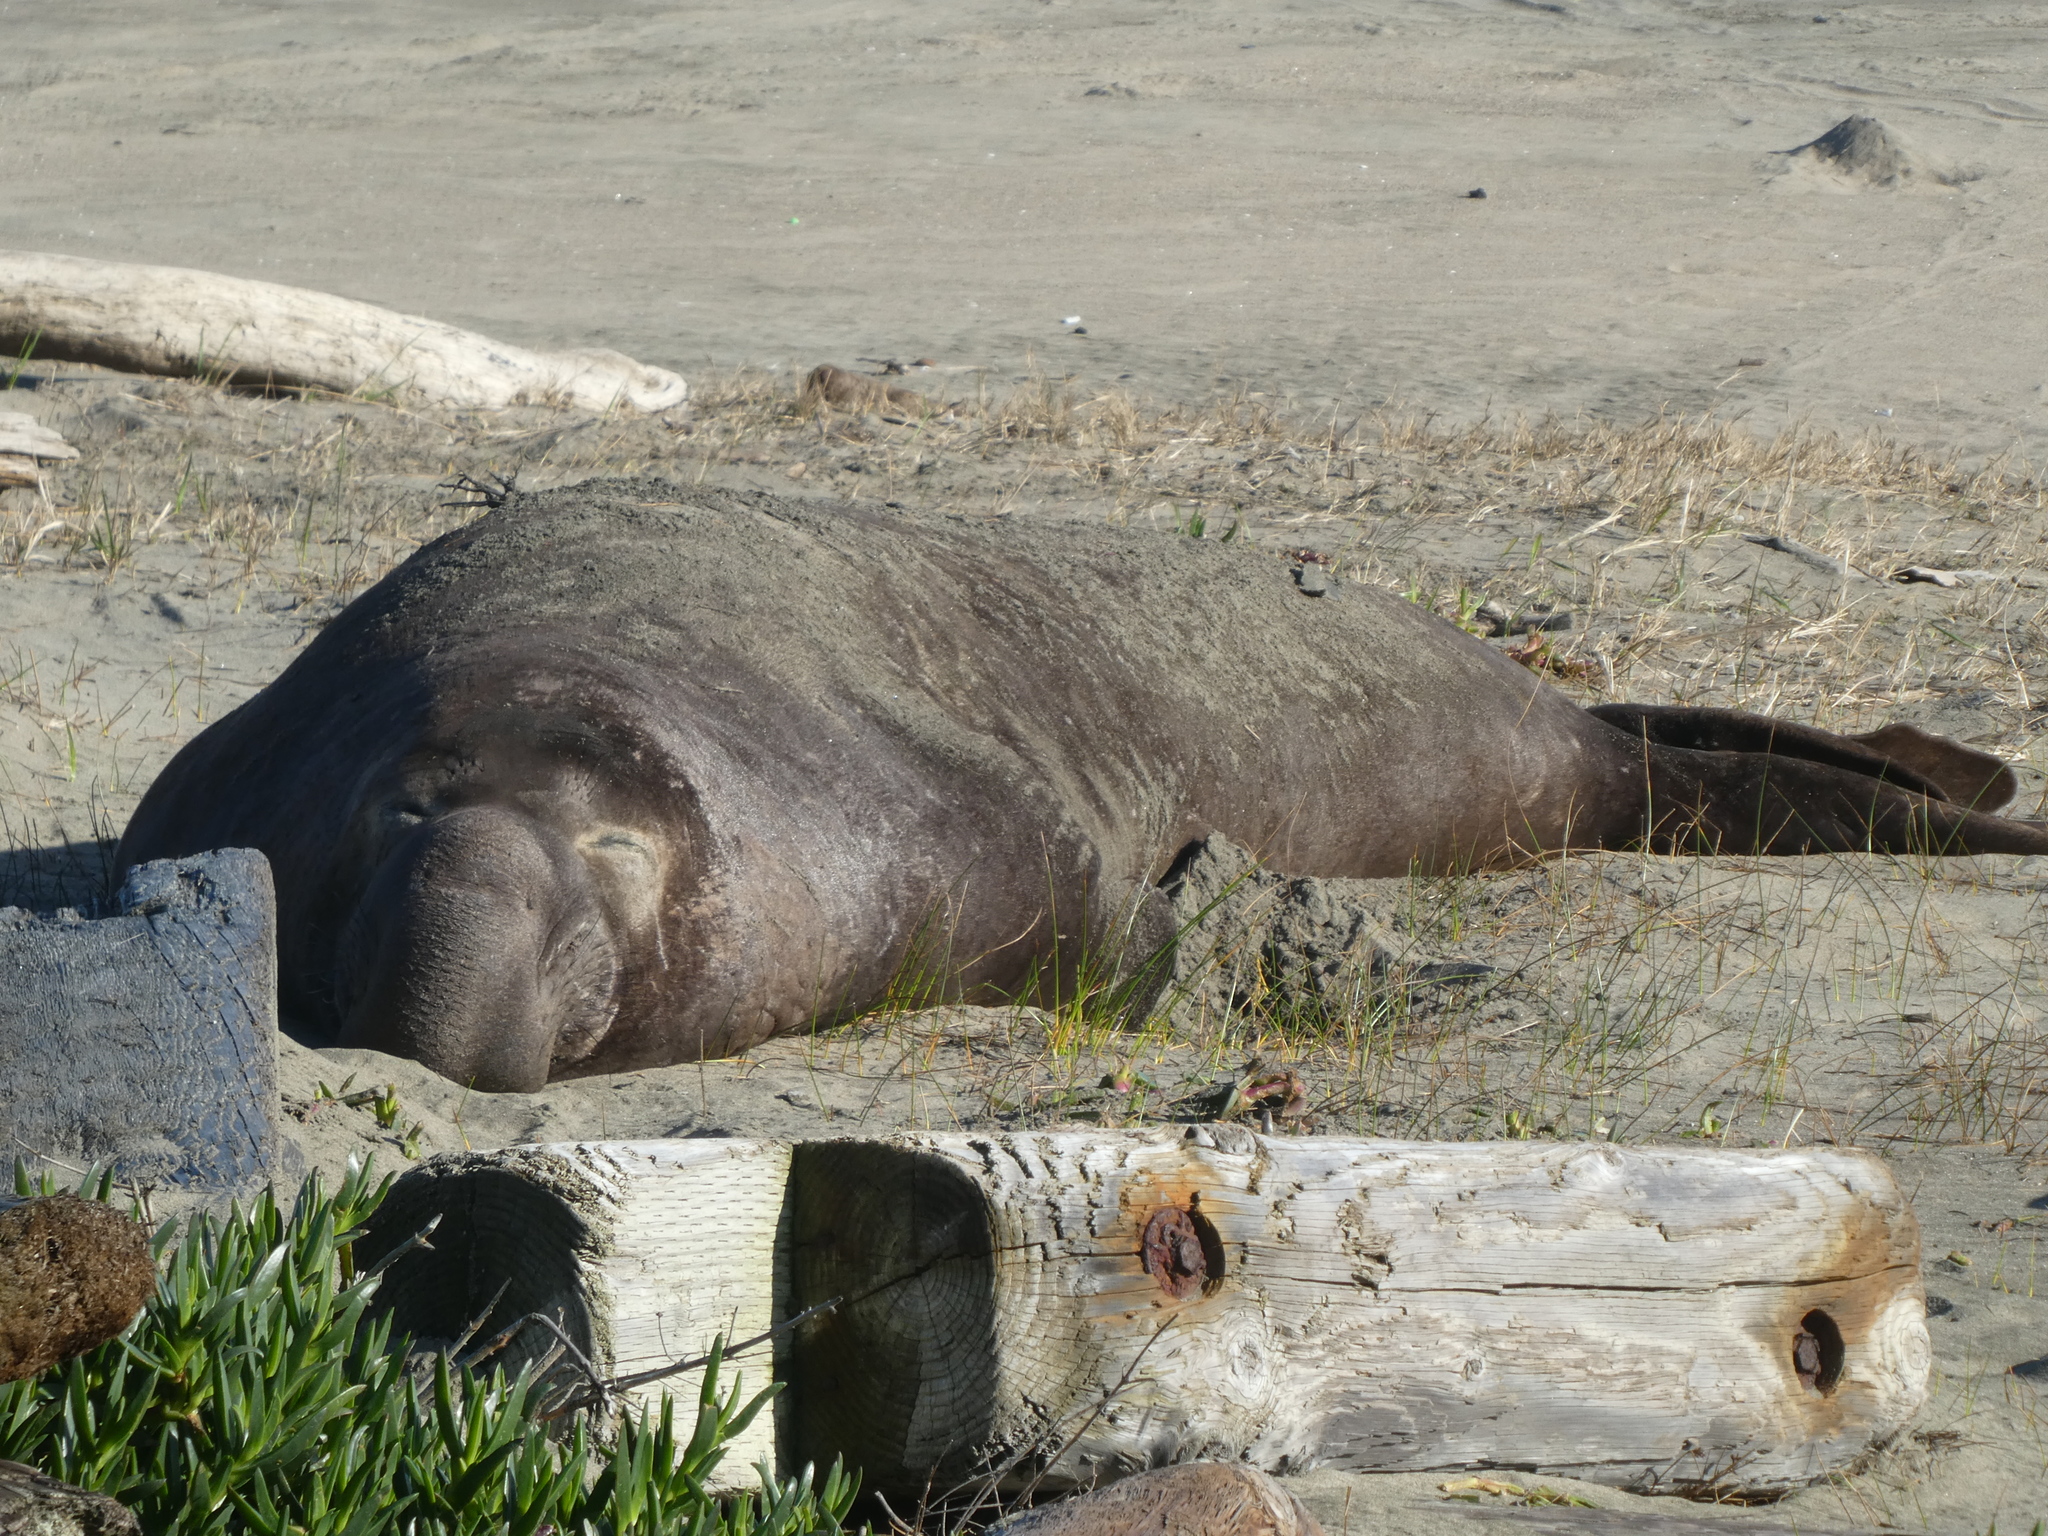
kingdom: Animalia
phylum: Chordata
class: Mammalia
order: Carnivora
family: Phocidae
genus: Mirounga
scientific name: Mirounga angustirostris
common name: Northern elephant seal
